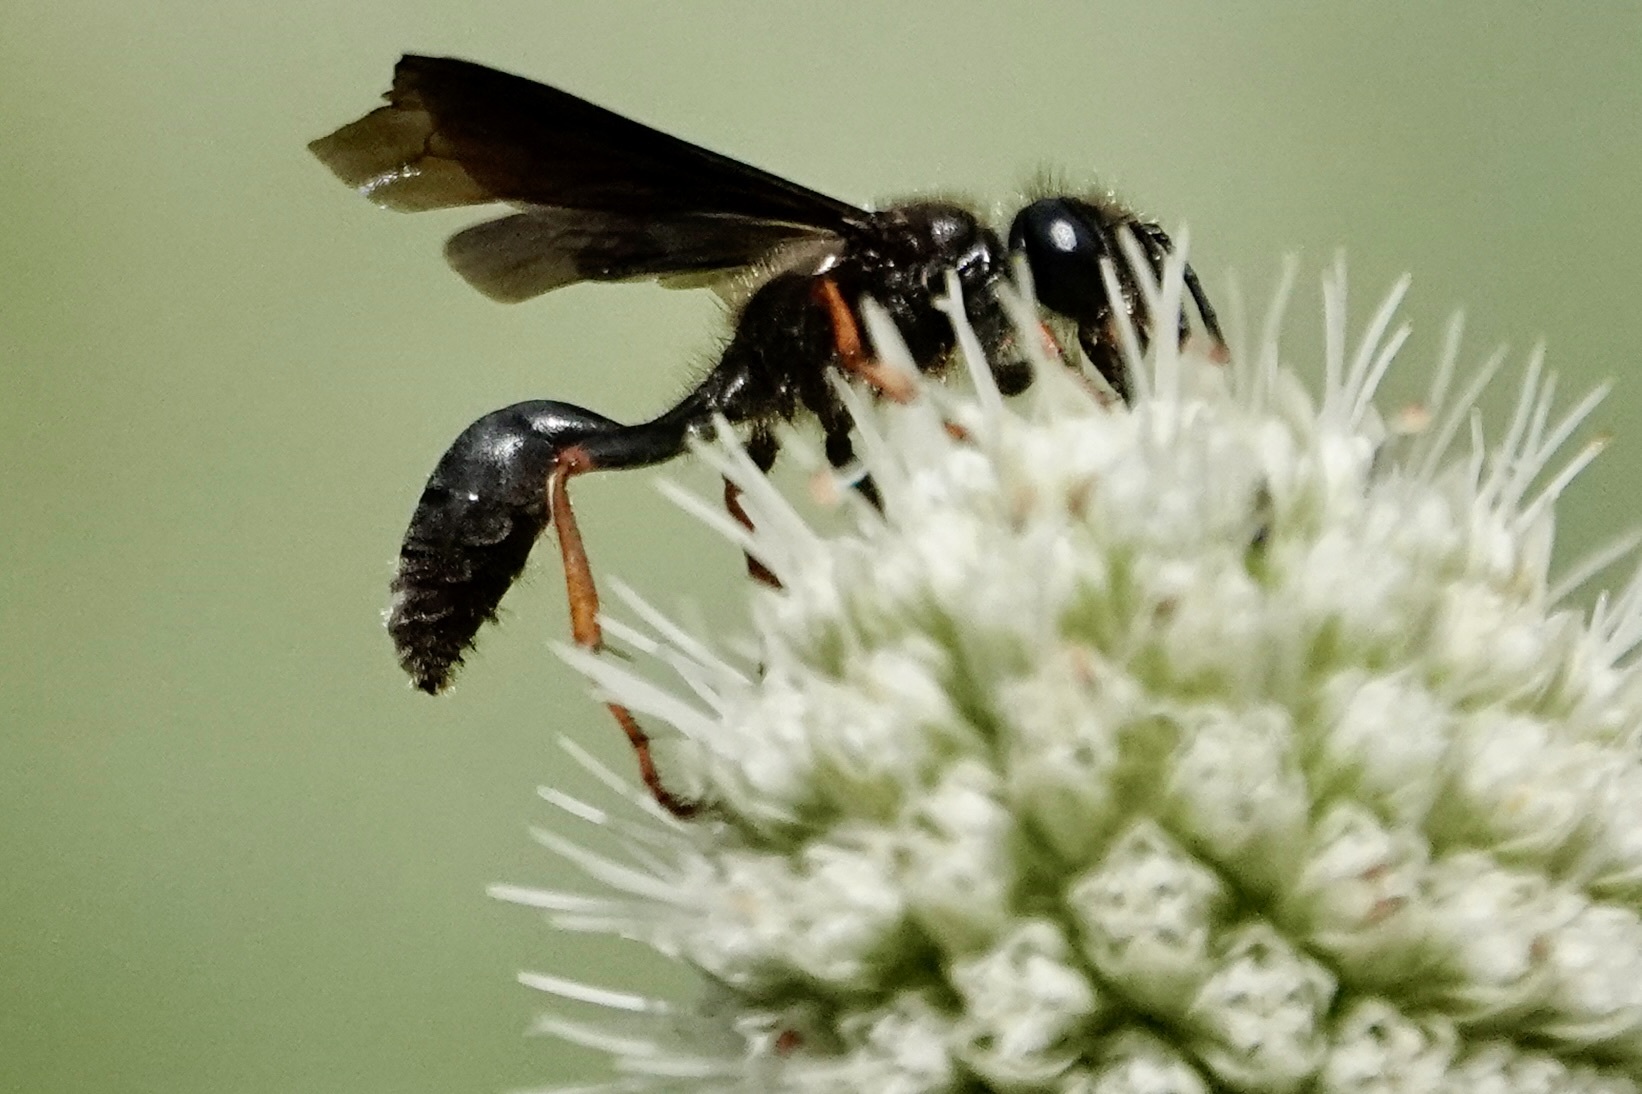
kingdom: Animalia
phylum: Arthropoda
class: Insecta
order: Hymenoptera
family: Sphecidae
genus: Isodontia
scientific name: Isodontia auripes
